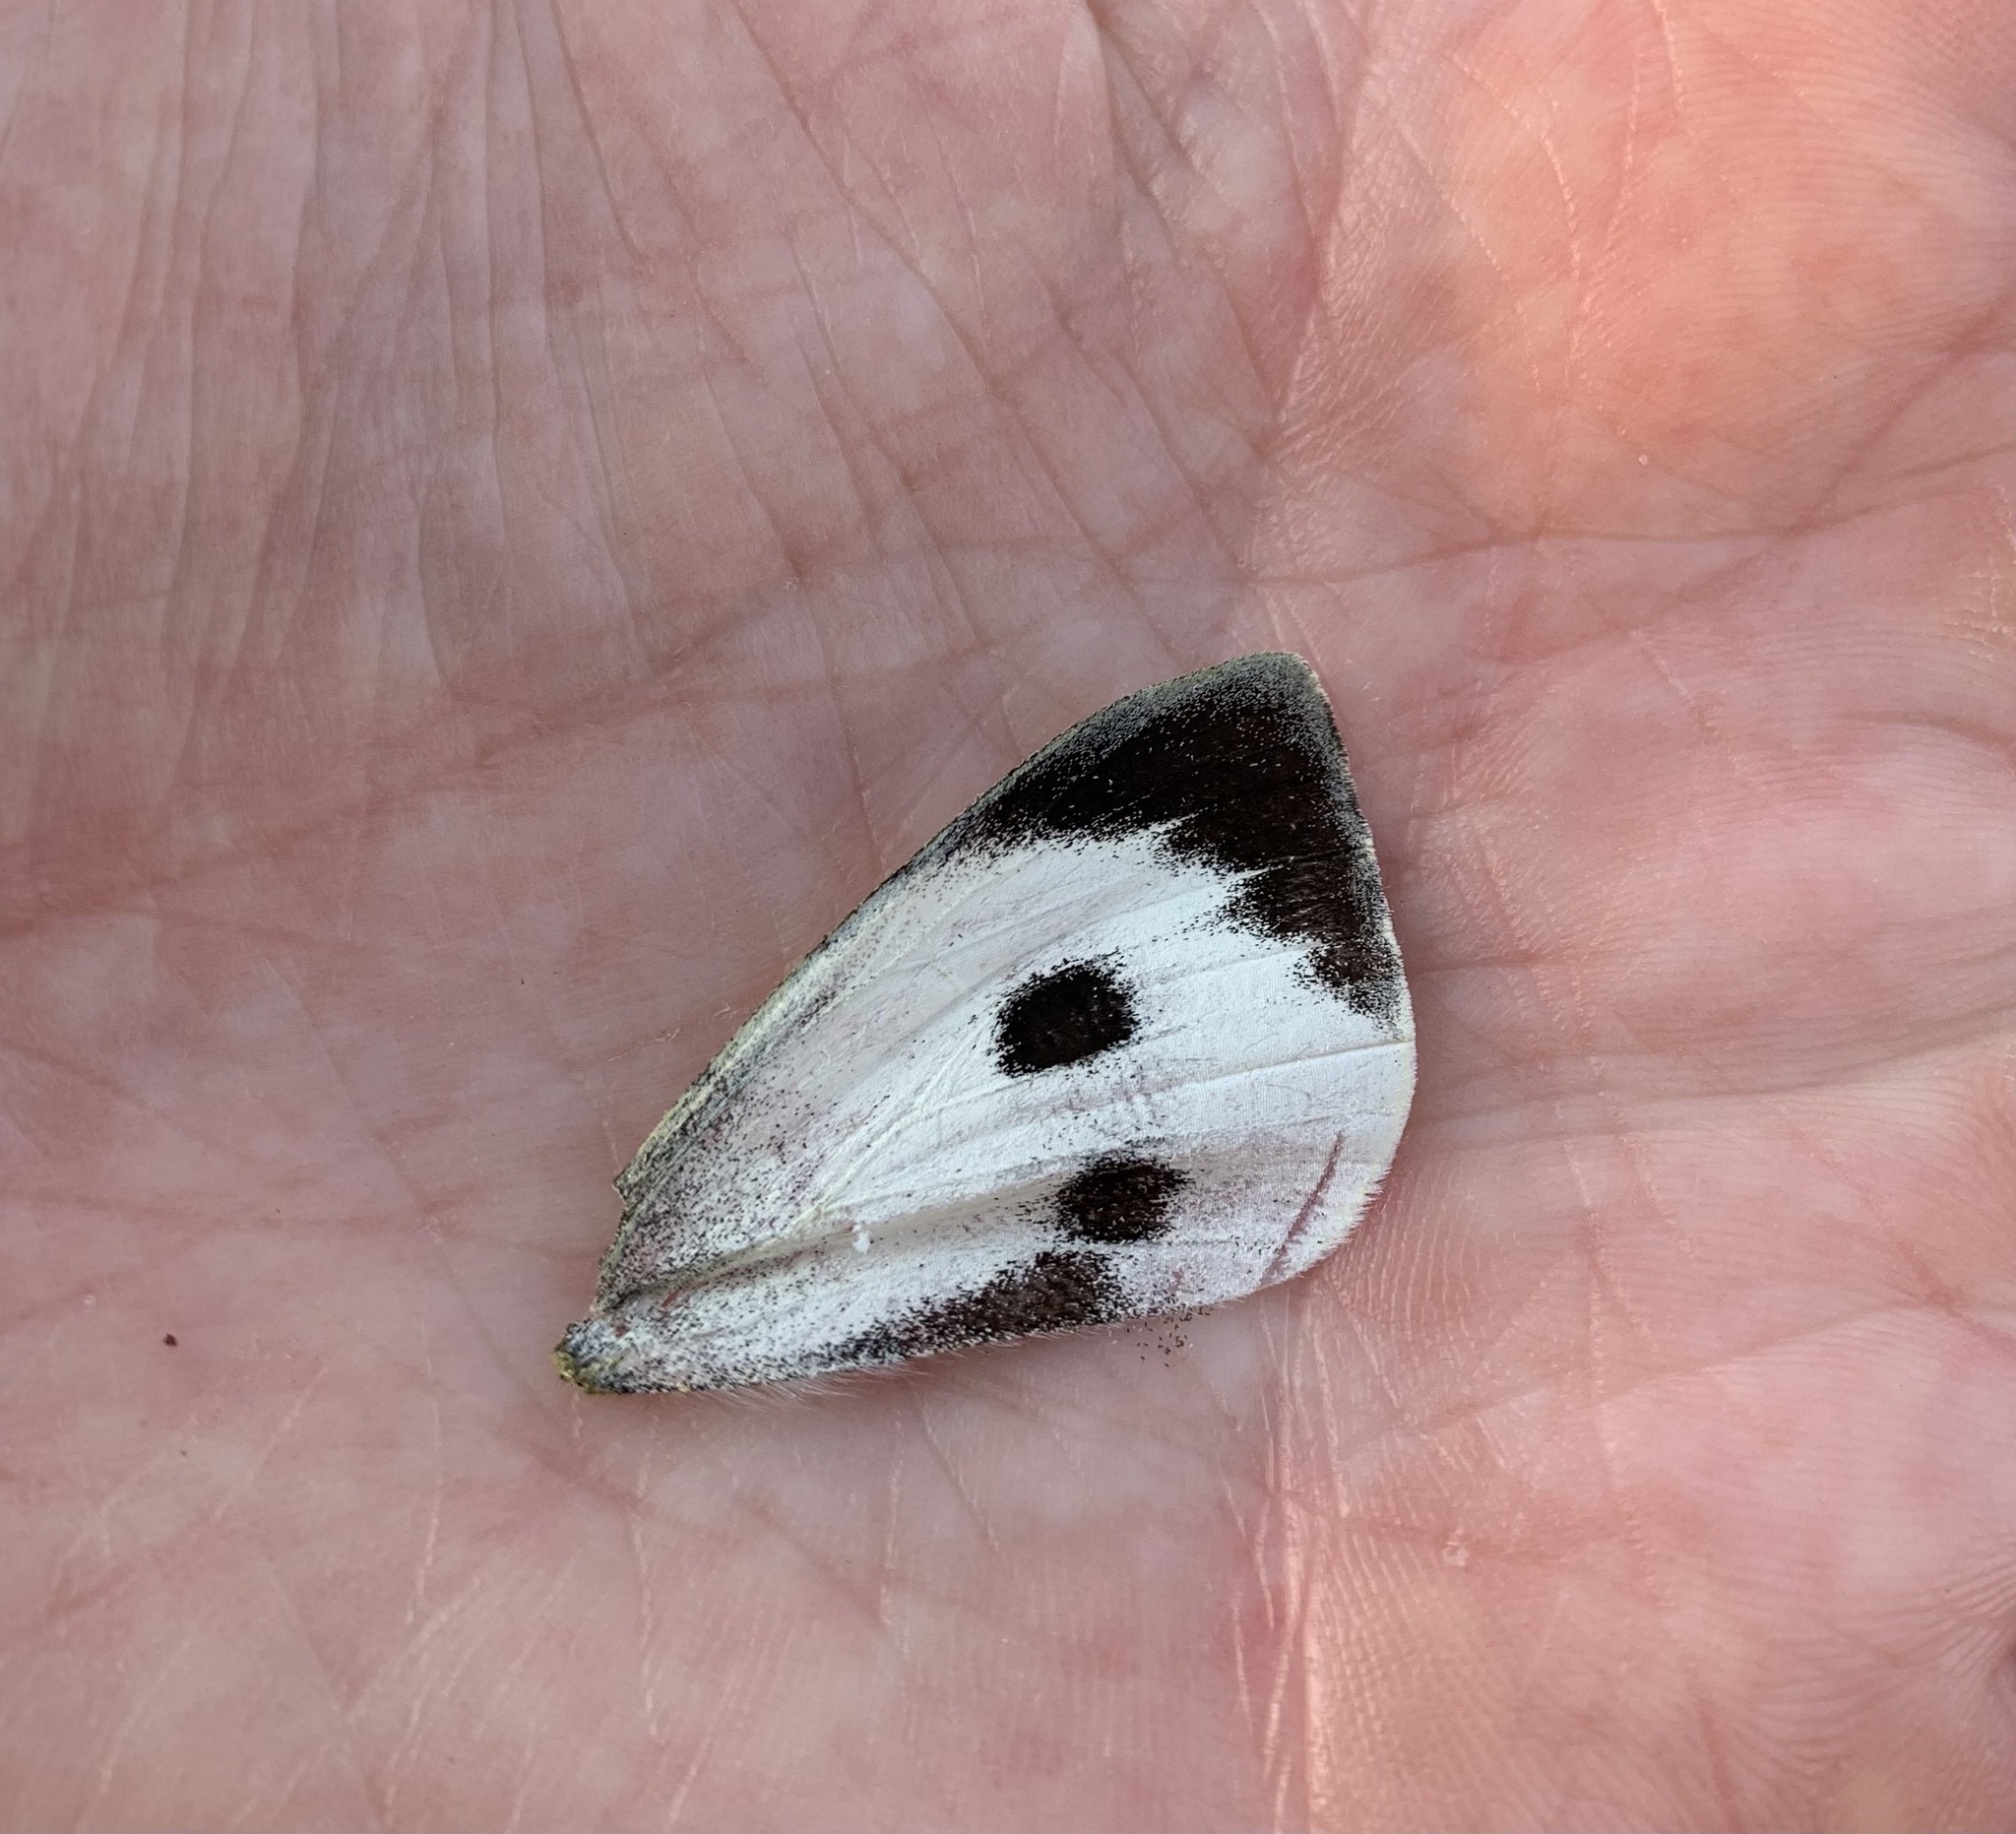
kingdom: Animalia
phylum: Arthropoda
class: Insecta
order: Lepidoptera
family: Pieridae
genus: Pieris
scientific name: Pieris brassicae
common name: Large white
